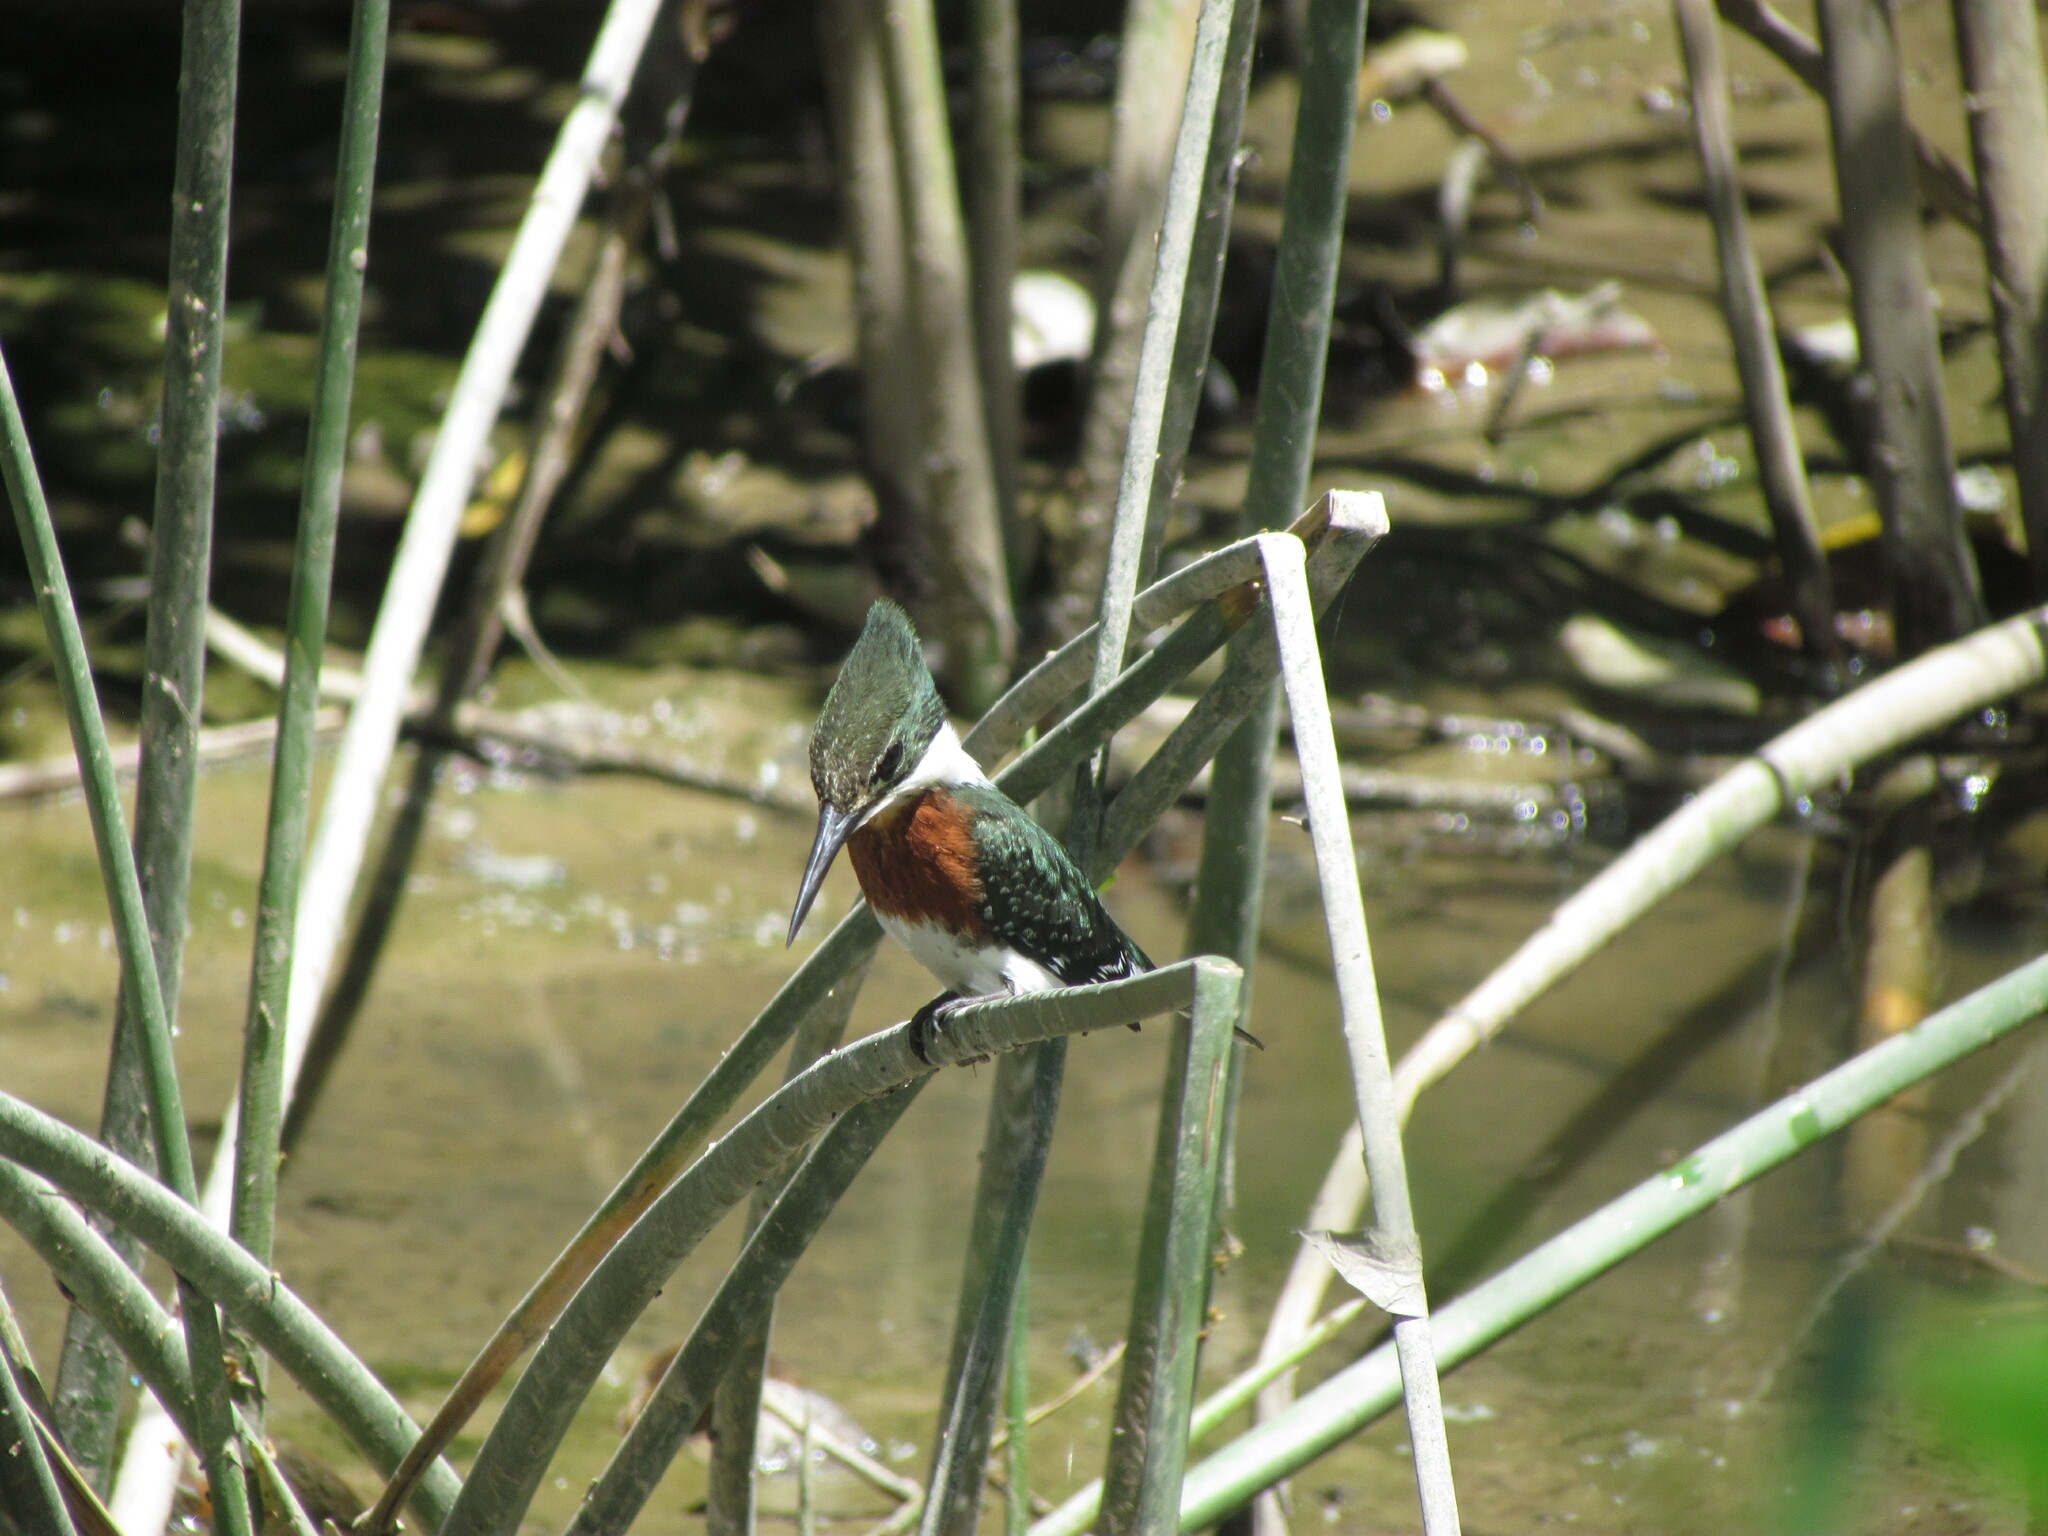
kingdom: Animalia
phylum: Chordata
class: Aves
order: Coraciiformes
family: Alcedinidae
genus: Chloroceryle
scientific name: Chloroceryle americana
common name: Green kingfisher
